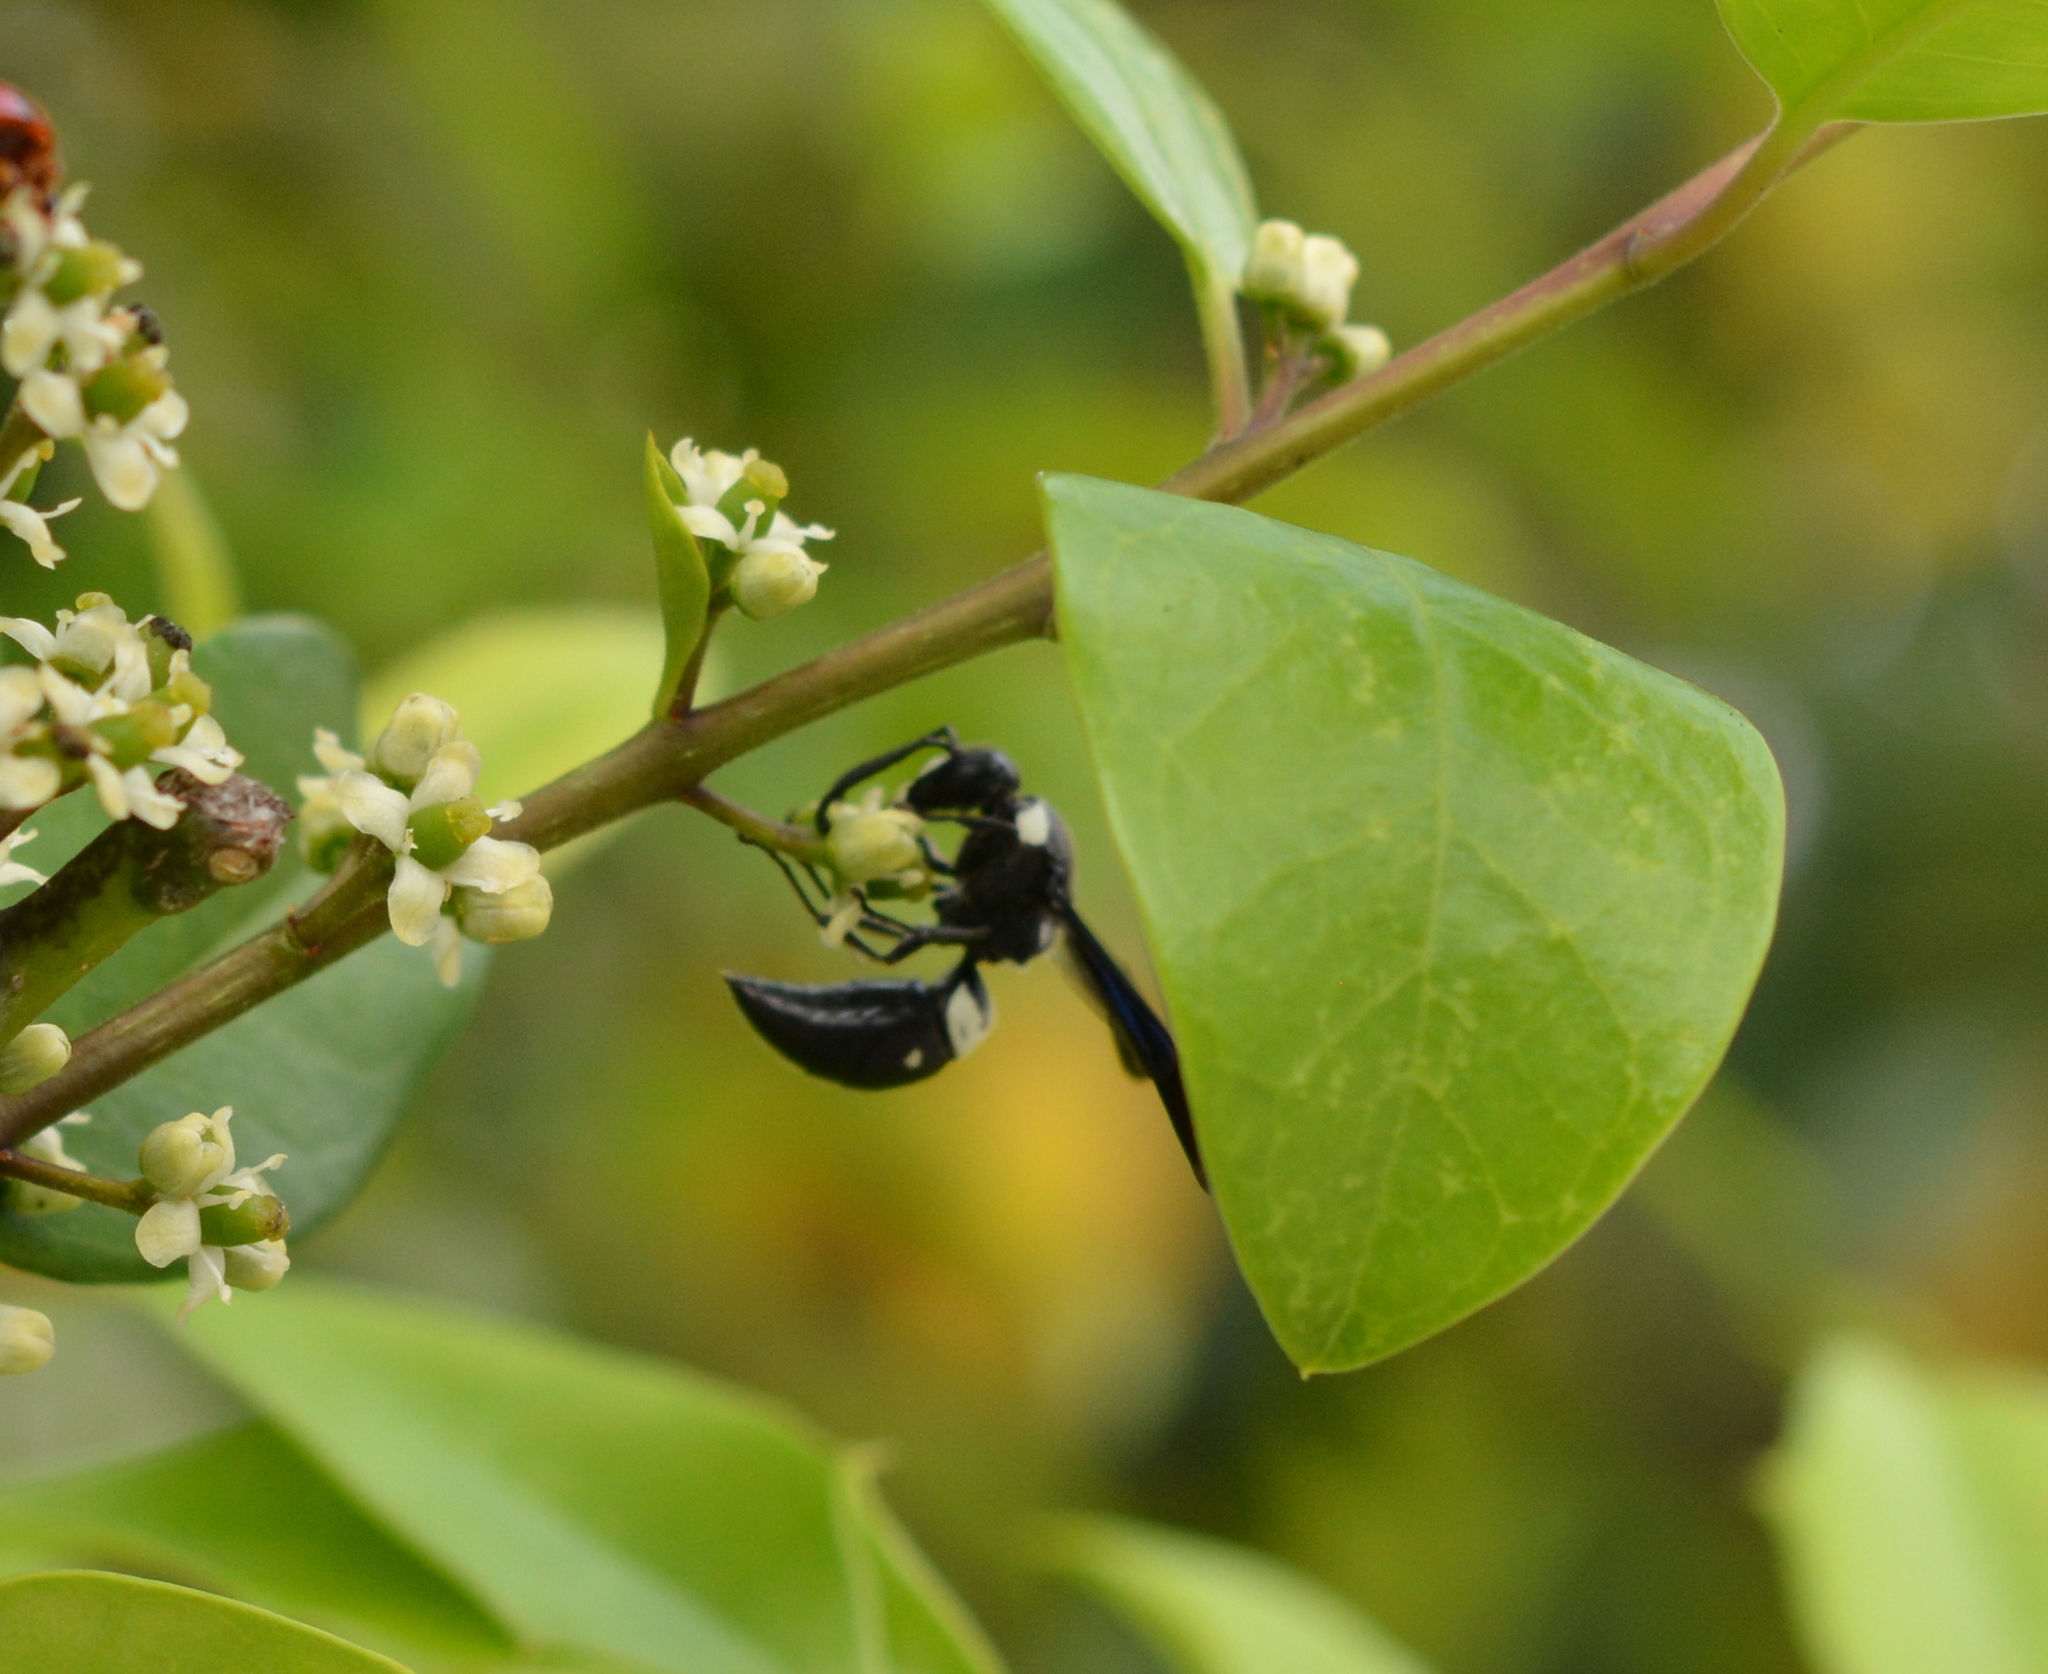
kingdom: Animalia
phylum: Arthropoda
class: Insecta
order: Hymenoptera
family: Eumenidae
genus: Monobia
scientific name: Monobia quadridens
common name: Four-toothed mason wasp
